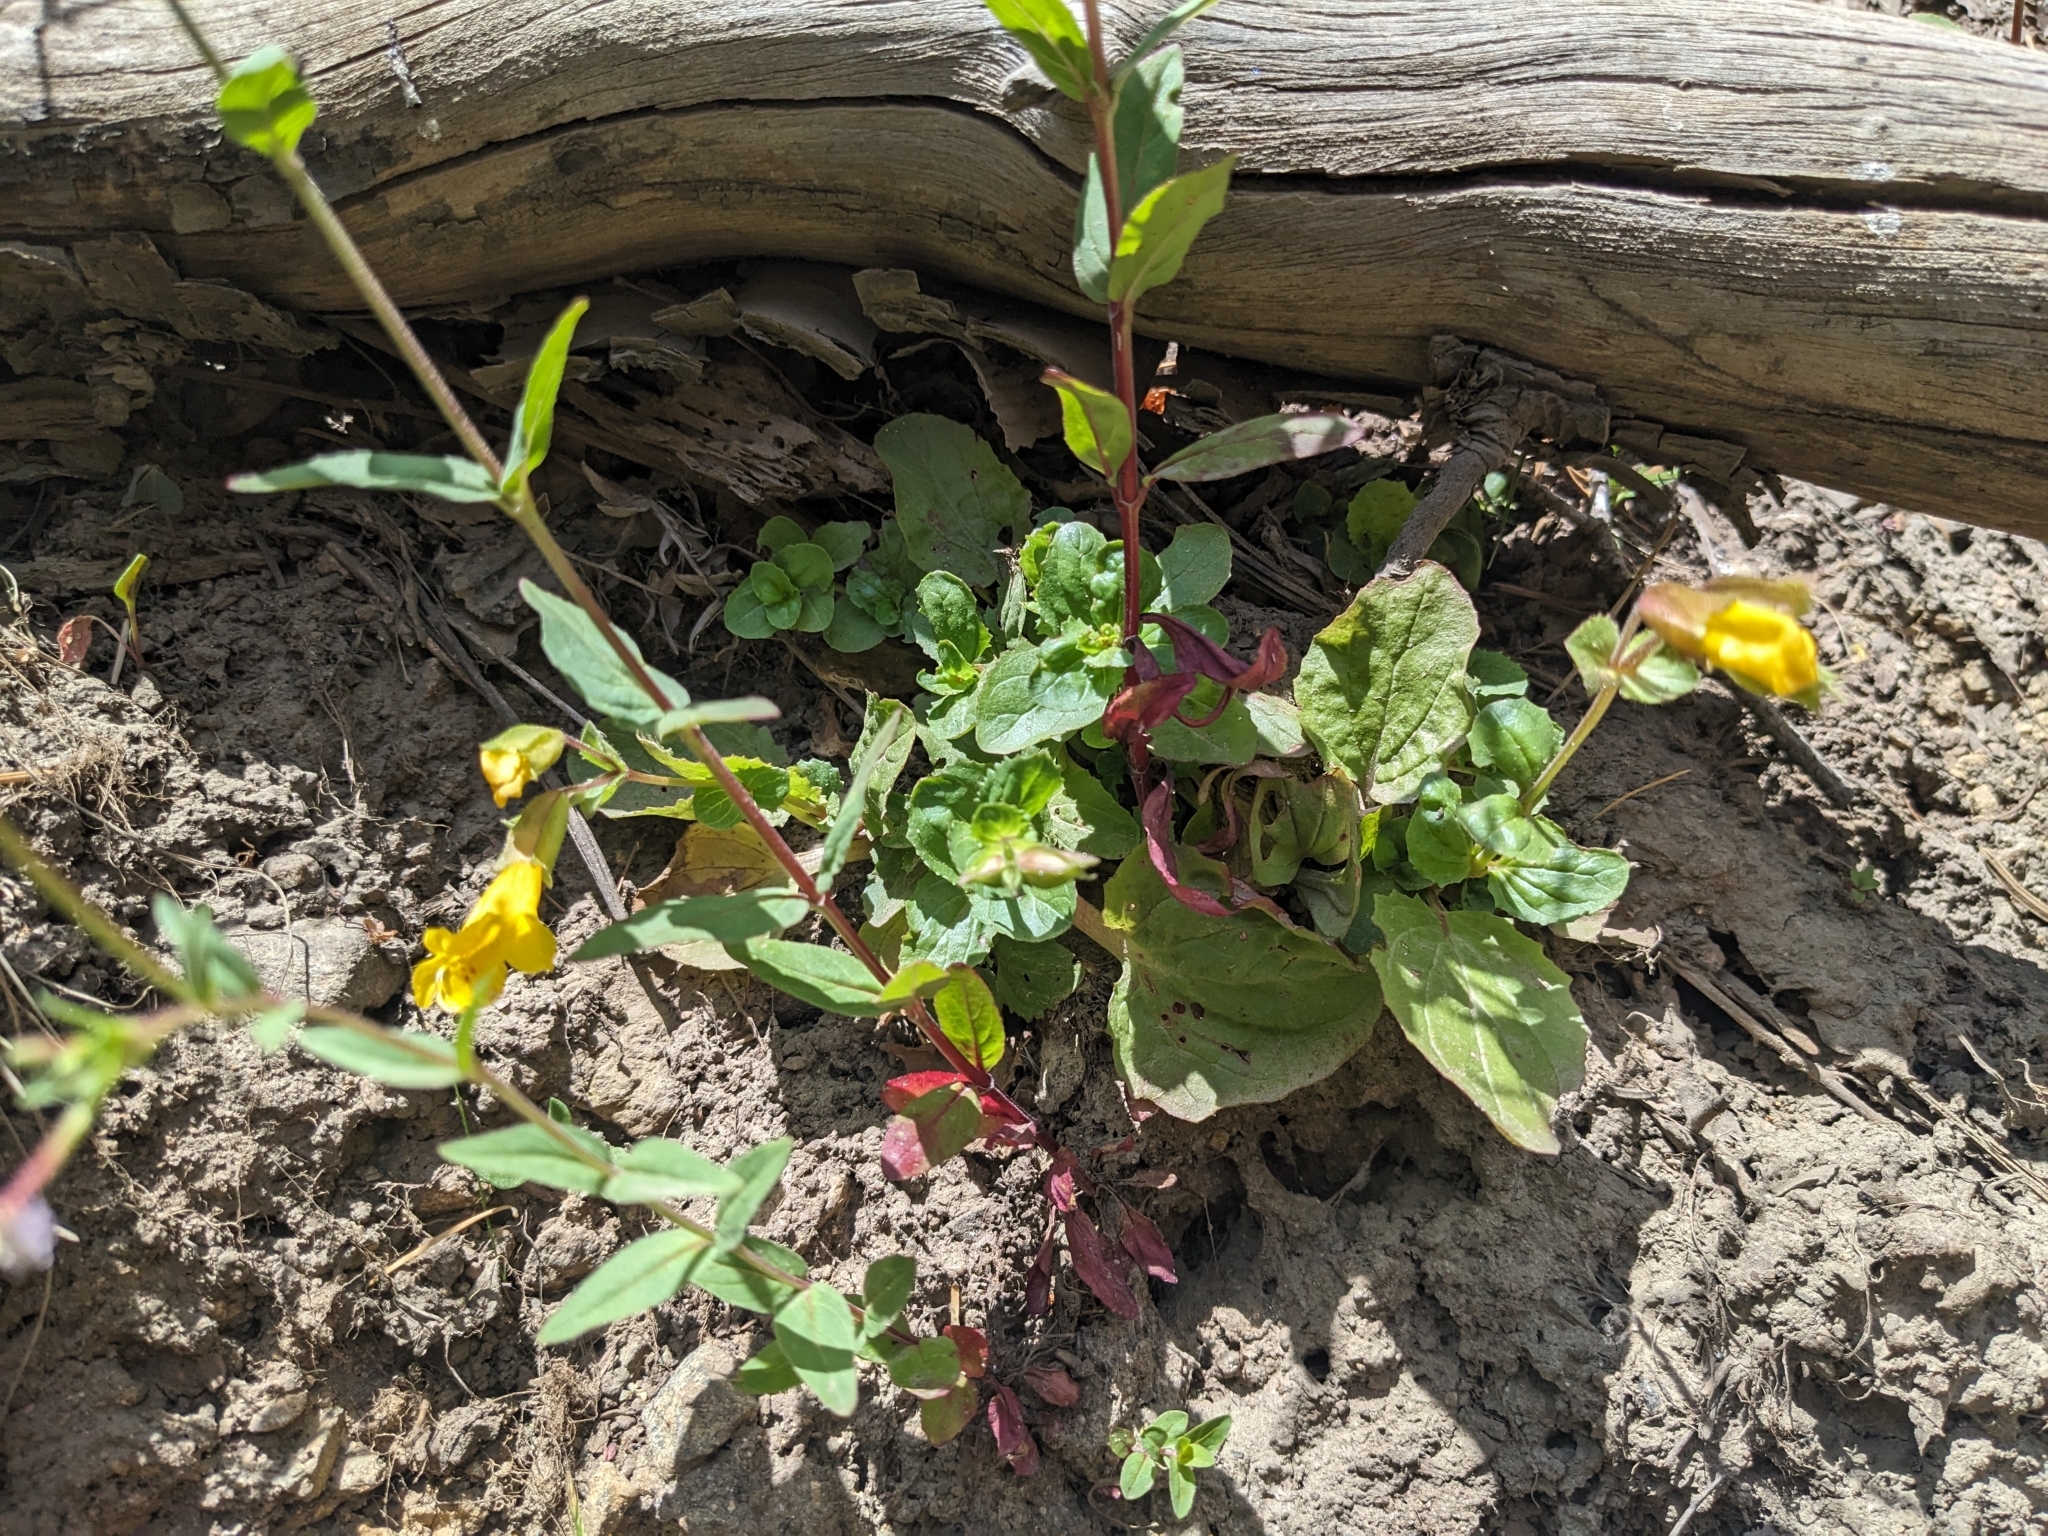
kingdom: Plantae
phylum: Tracheophyta
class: Magnoliopsida
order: Lamiales
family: Phrymaceae
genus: Erythranthe
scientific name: Erythranthe guttata
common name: Monkeyflower
